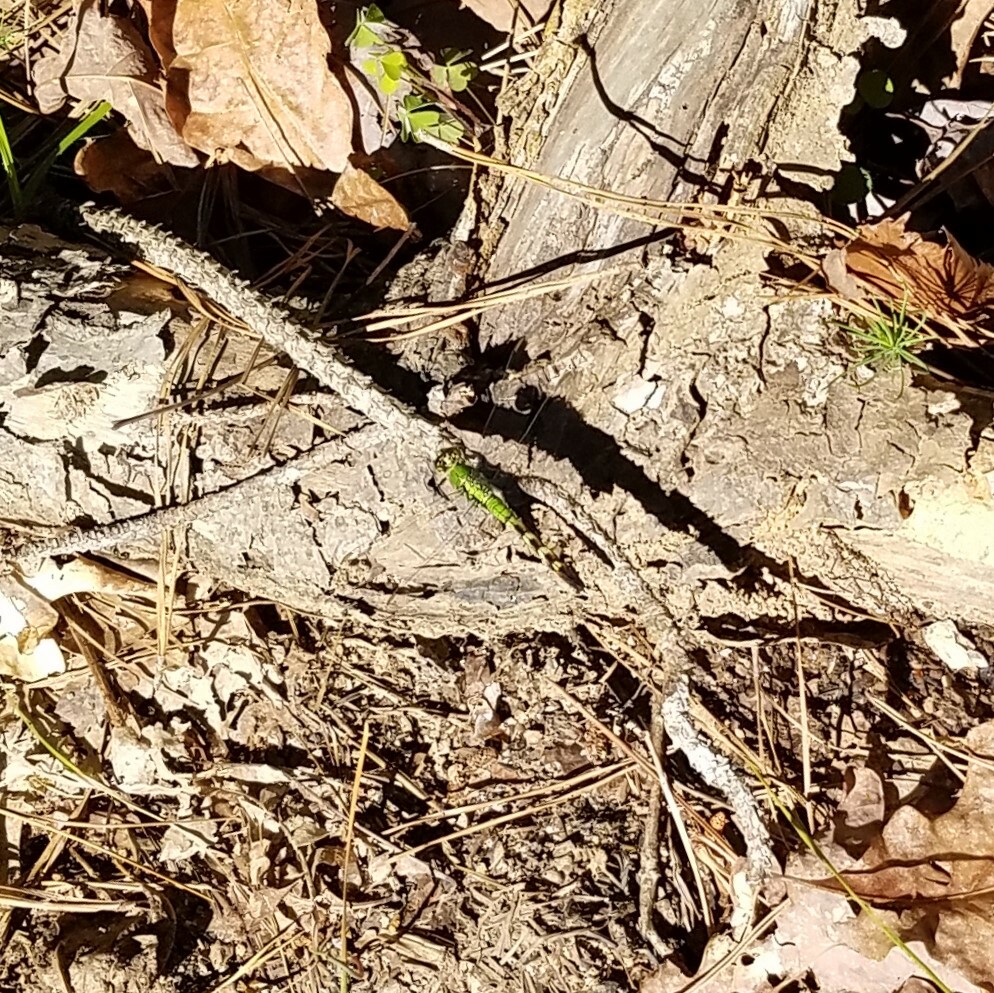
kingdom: Animalia
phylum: Arthropoda
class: Insecta
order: Odonata
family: Libellulidae
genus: Erythemis
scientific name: Erythemis simplicicollis
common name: Eastern pondhawk
